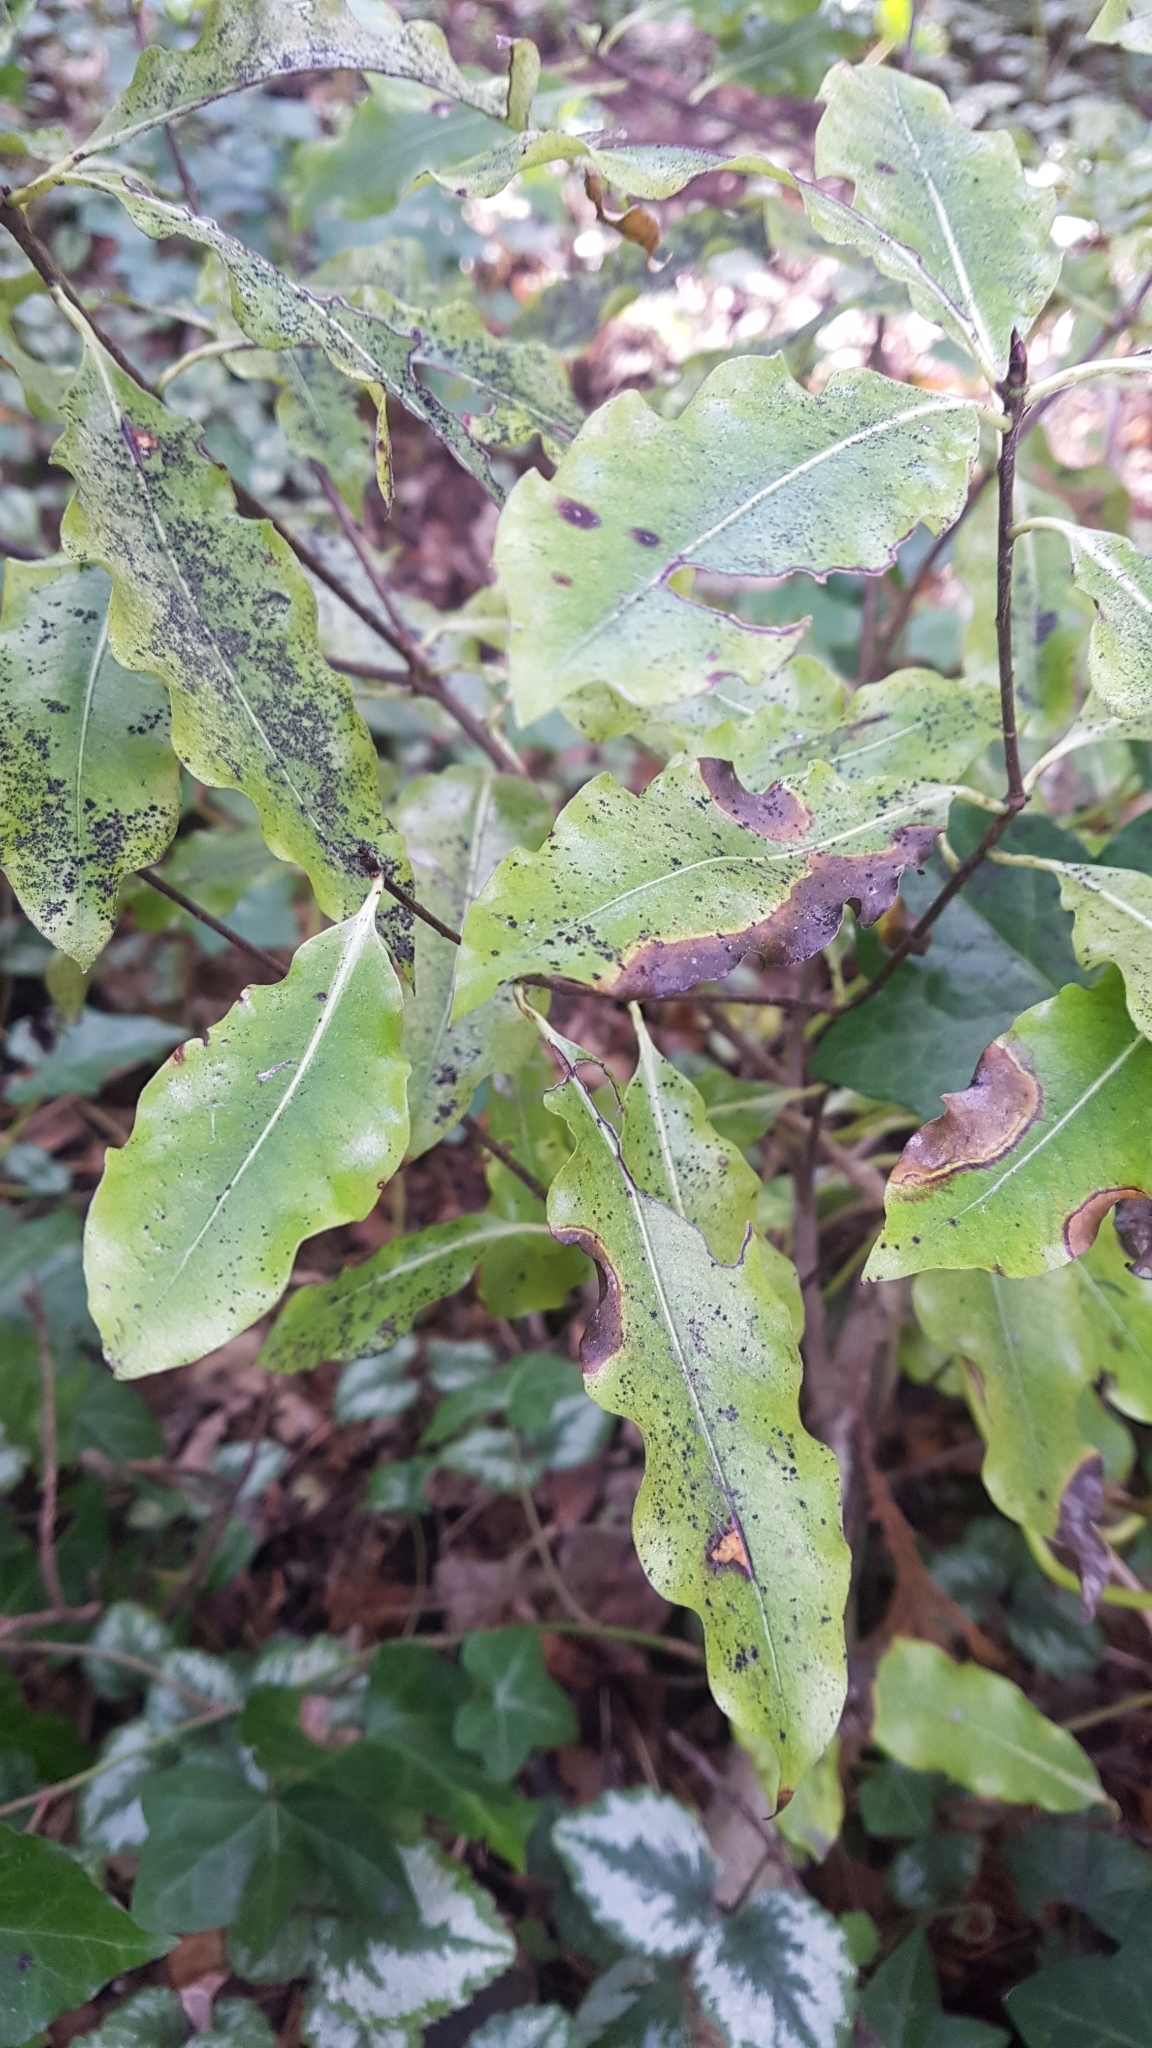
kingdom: Plantae
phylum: Tracheophyta
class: Magnoliopsida
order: Apiales
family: Pittosporaceae
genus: Pittosporum
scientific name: Pittosporum eugenioides
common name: Lemonwood
